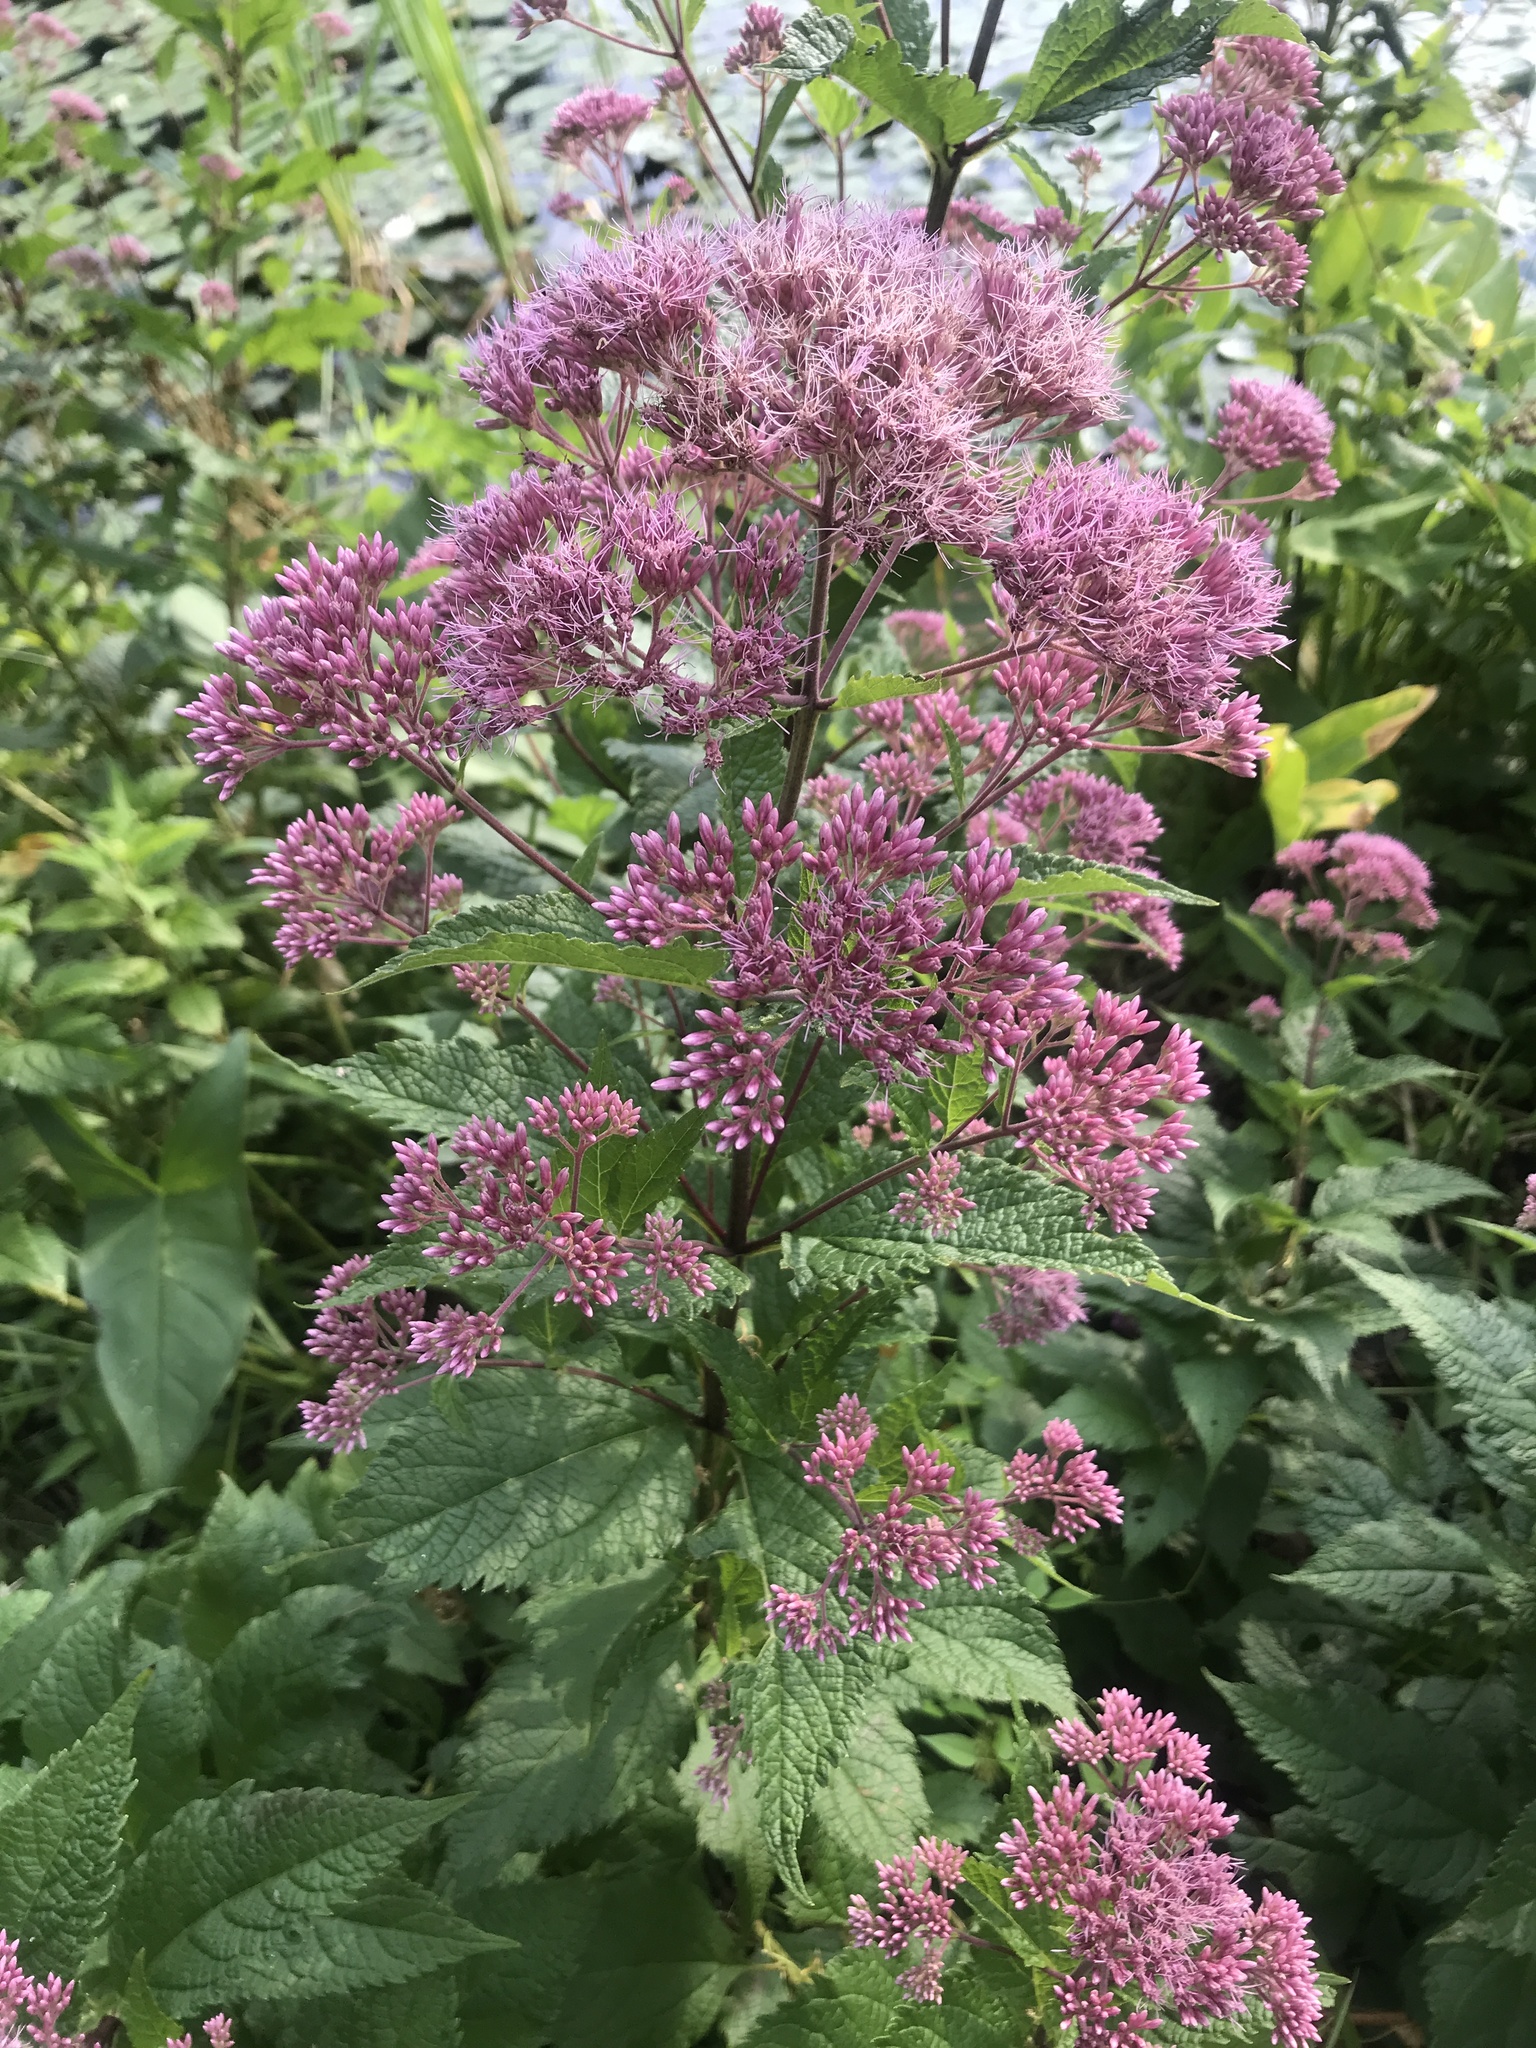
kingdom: Plantae
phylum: Tracheophyta
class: Magnoliopsida
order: Asterales
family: Asteraceae
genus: Eutrochium
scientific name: Eutrochium dubium
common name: Coastal plain joe pye weed
